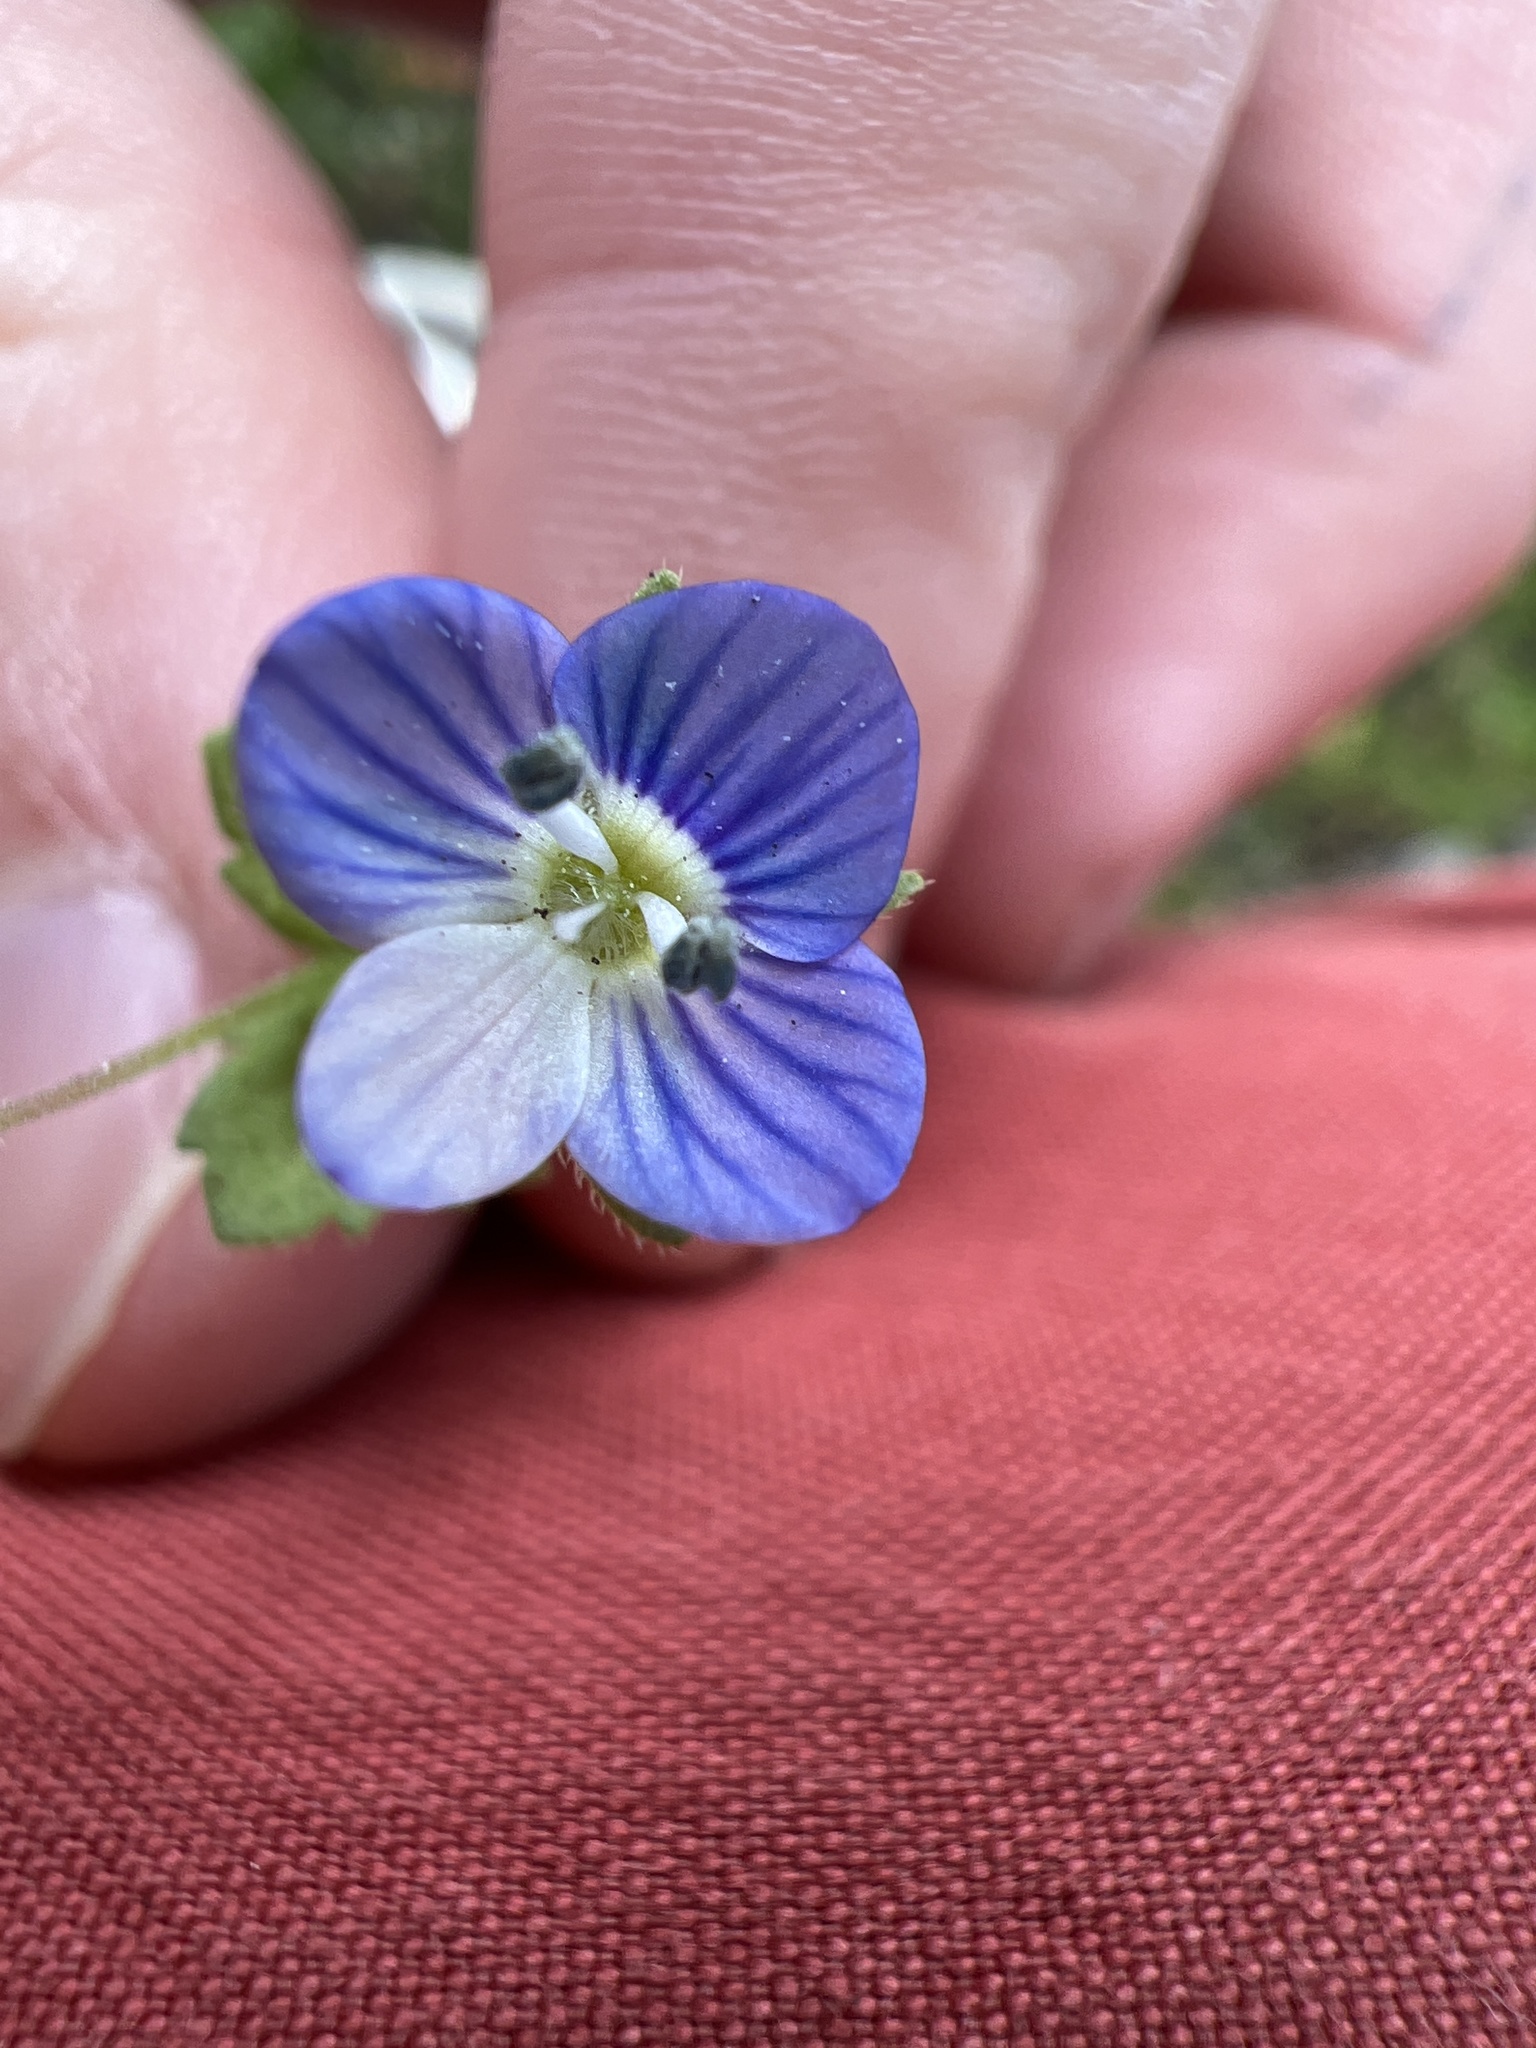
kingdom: Plantae
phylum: Tracheophyta
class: Magnoliopsida
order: Lamiales
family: Plantaginaceae
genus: Veronica
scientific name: Veronica persica
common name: Common field-speedwell
